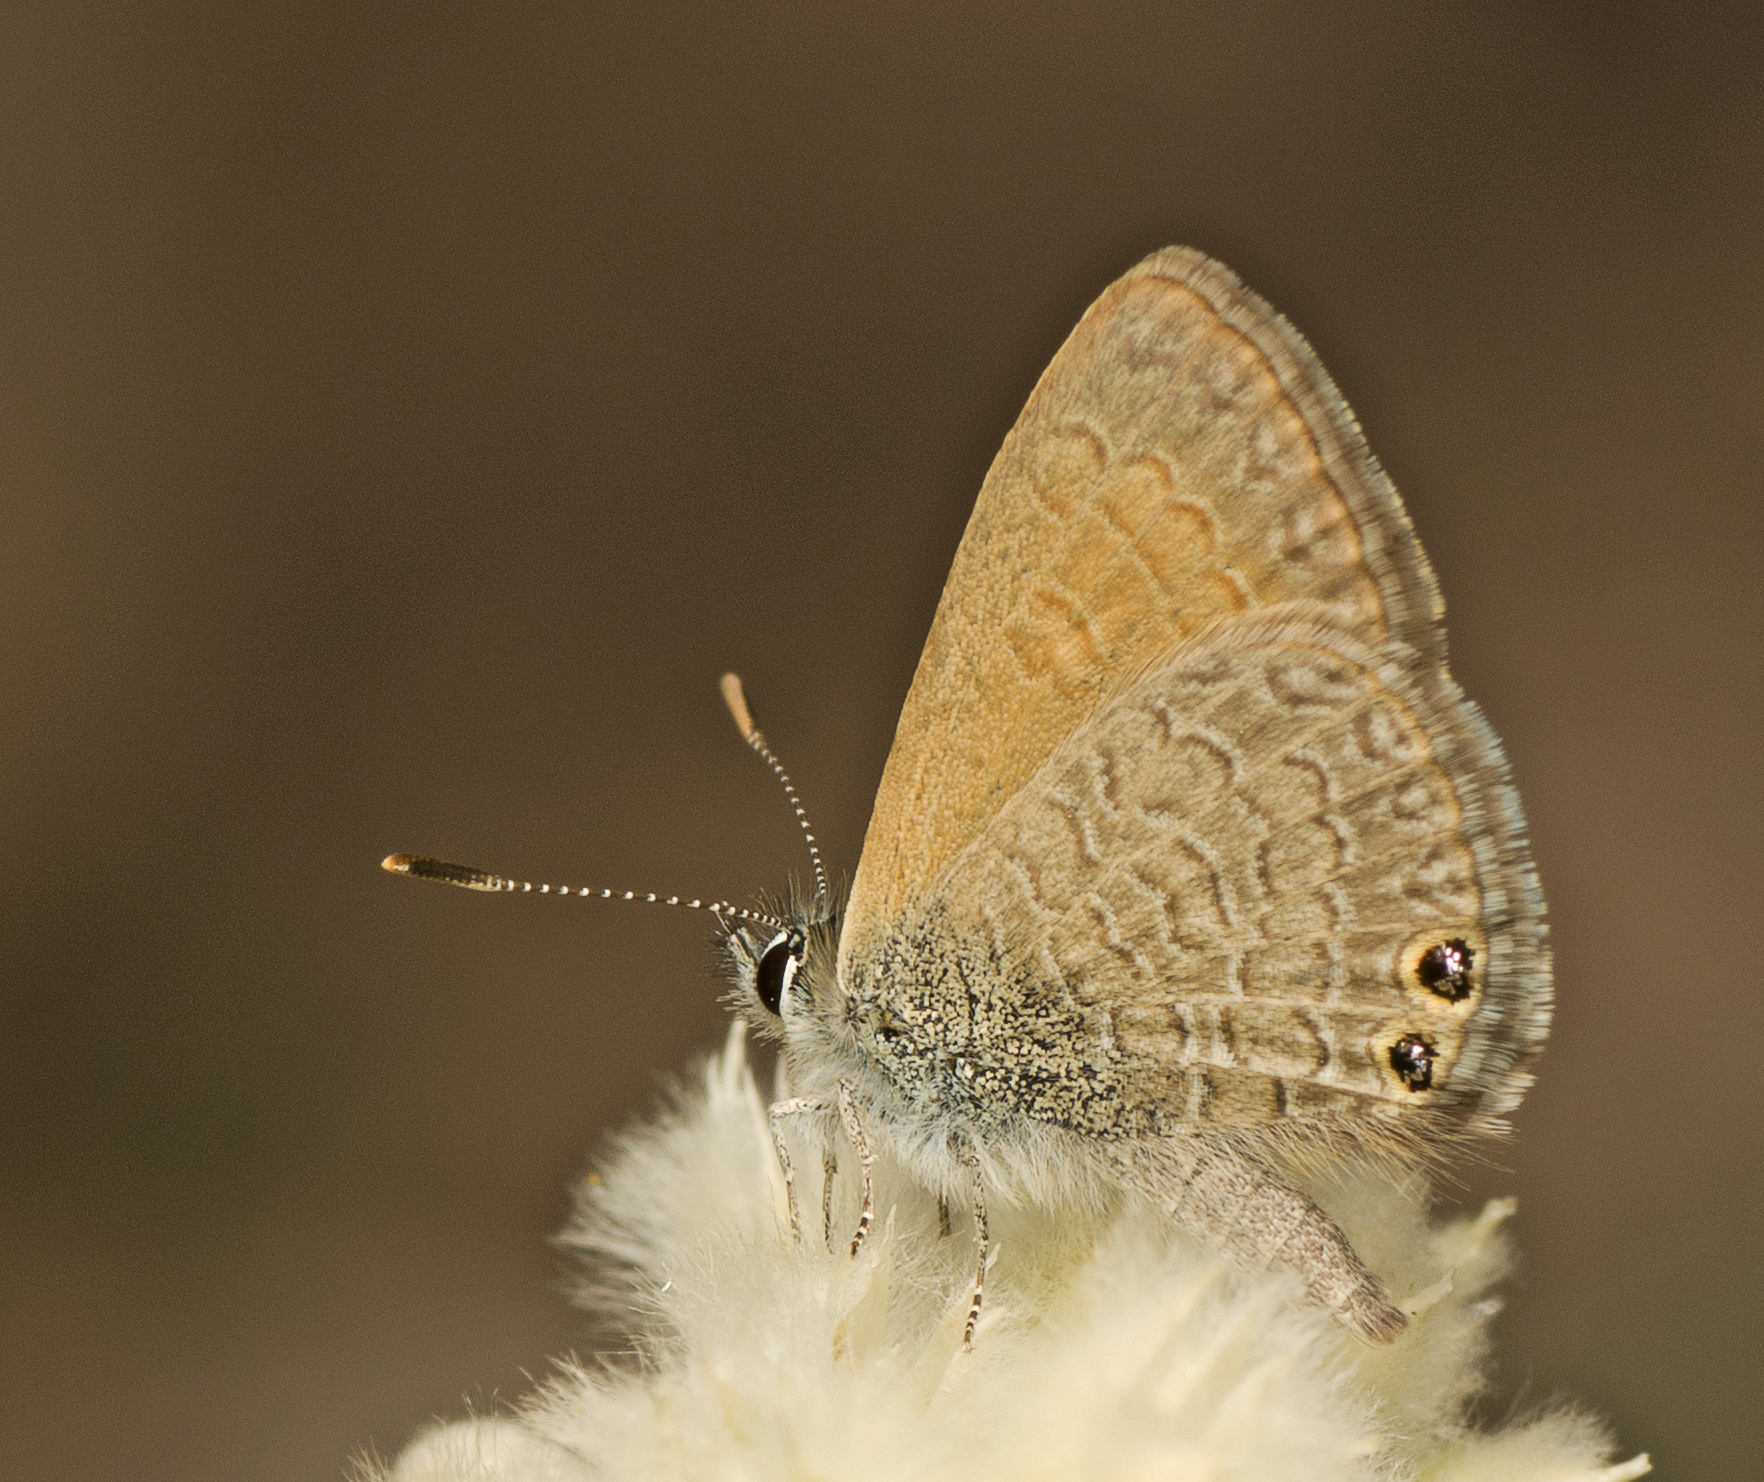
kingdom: Animalia
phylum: Arthropoda
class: Insecta
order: Lepidoptera
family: Lycaenidae
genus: Nacaduba
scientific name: Nacaduba biocellata
